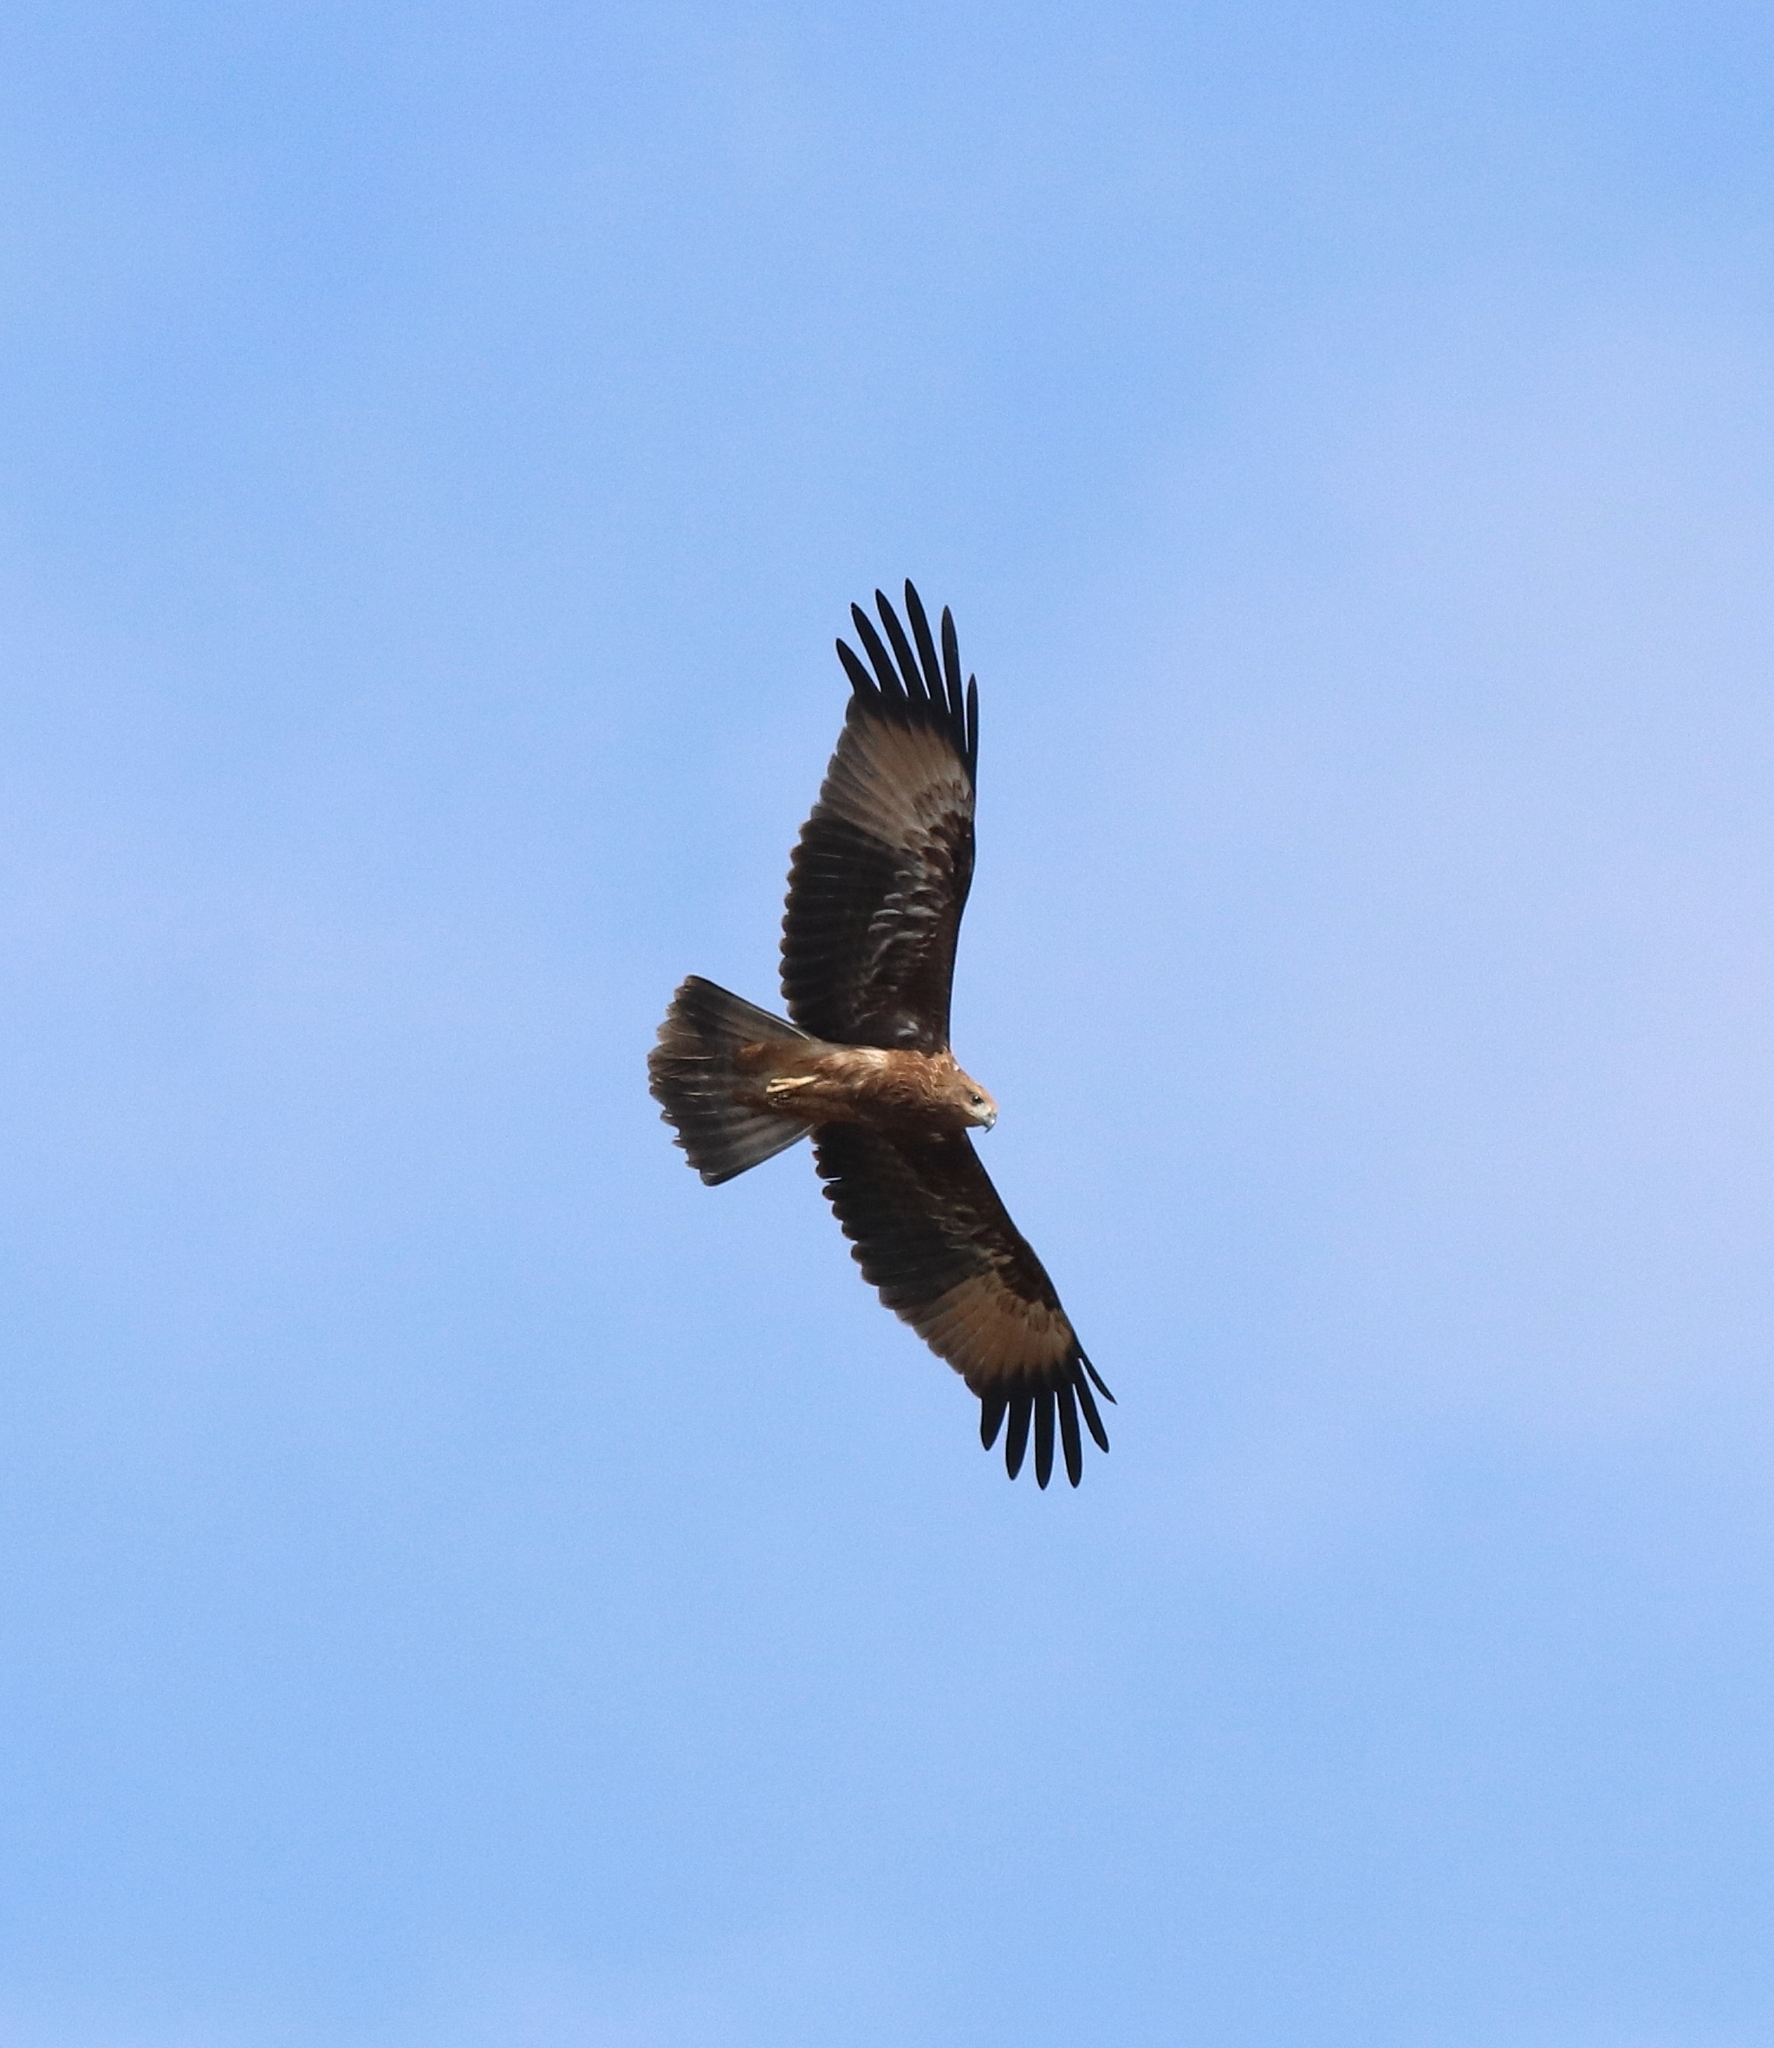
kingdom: Animalia
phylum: Chordata
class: Aves
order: Accipitriformes
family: Accipitridae
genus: Haliastur
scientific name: Haliastur indus
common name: Brahminy kite
